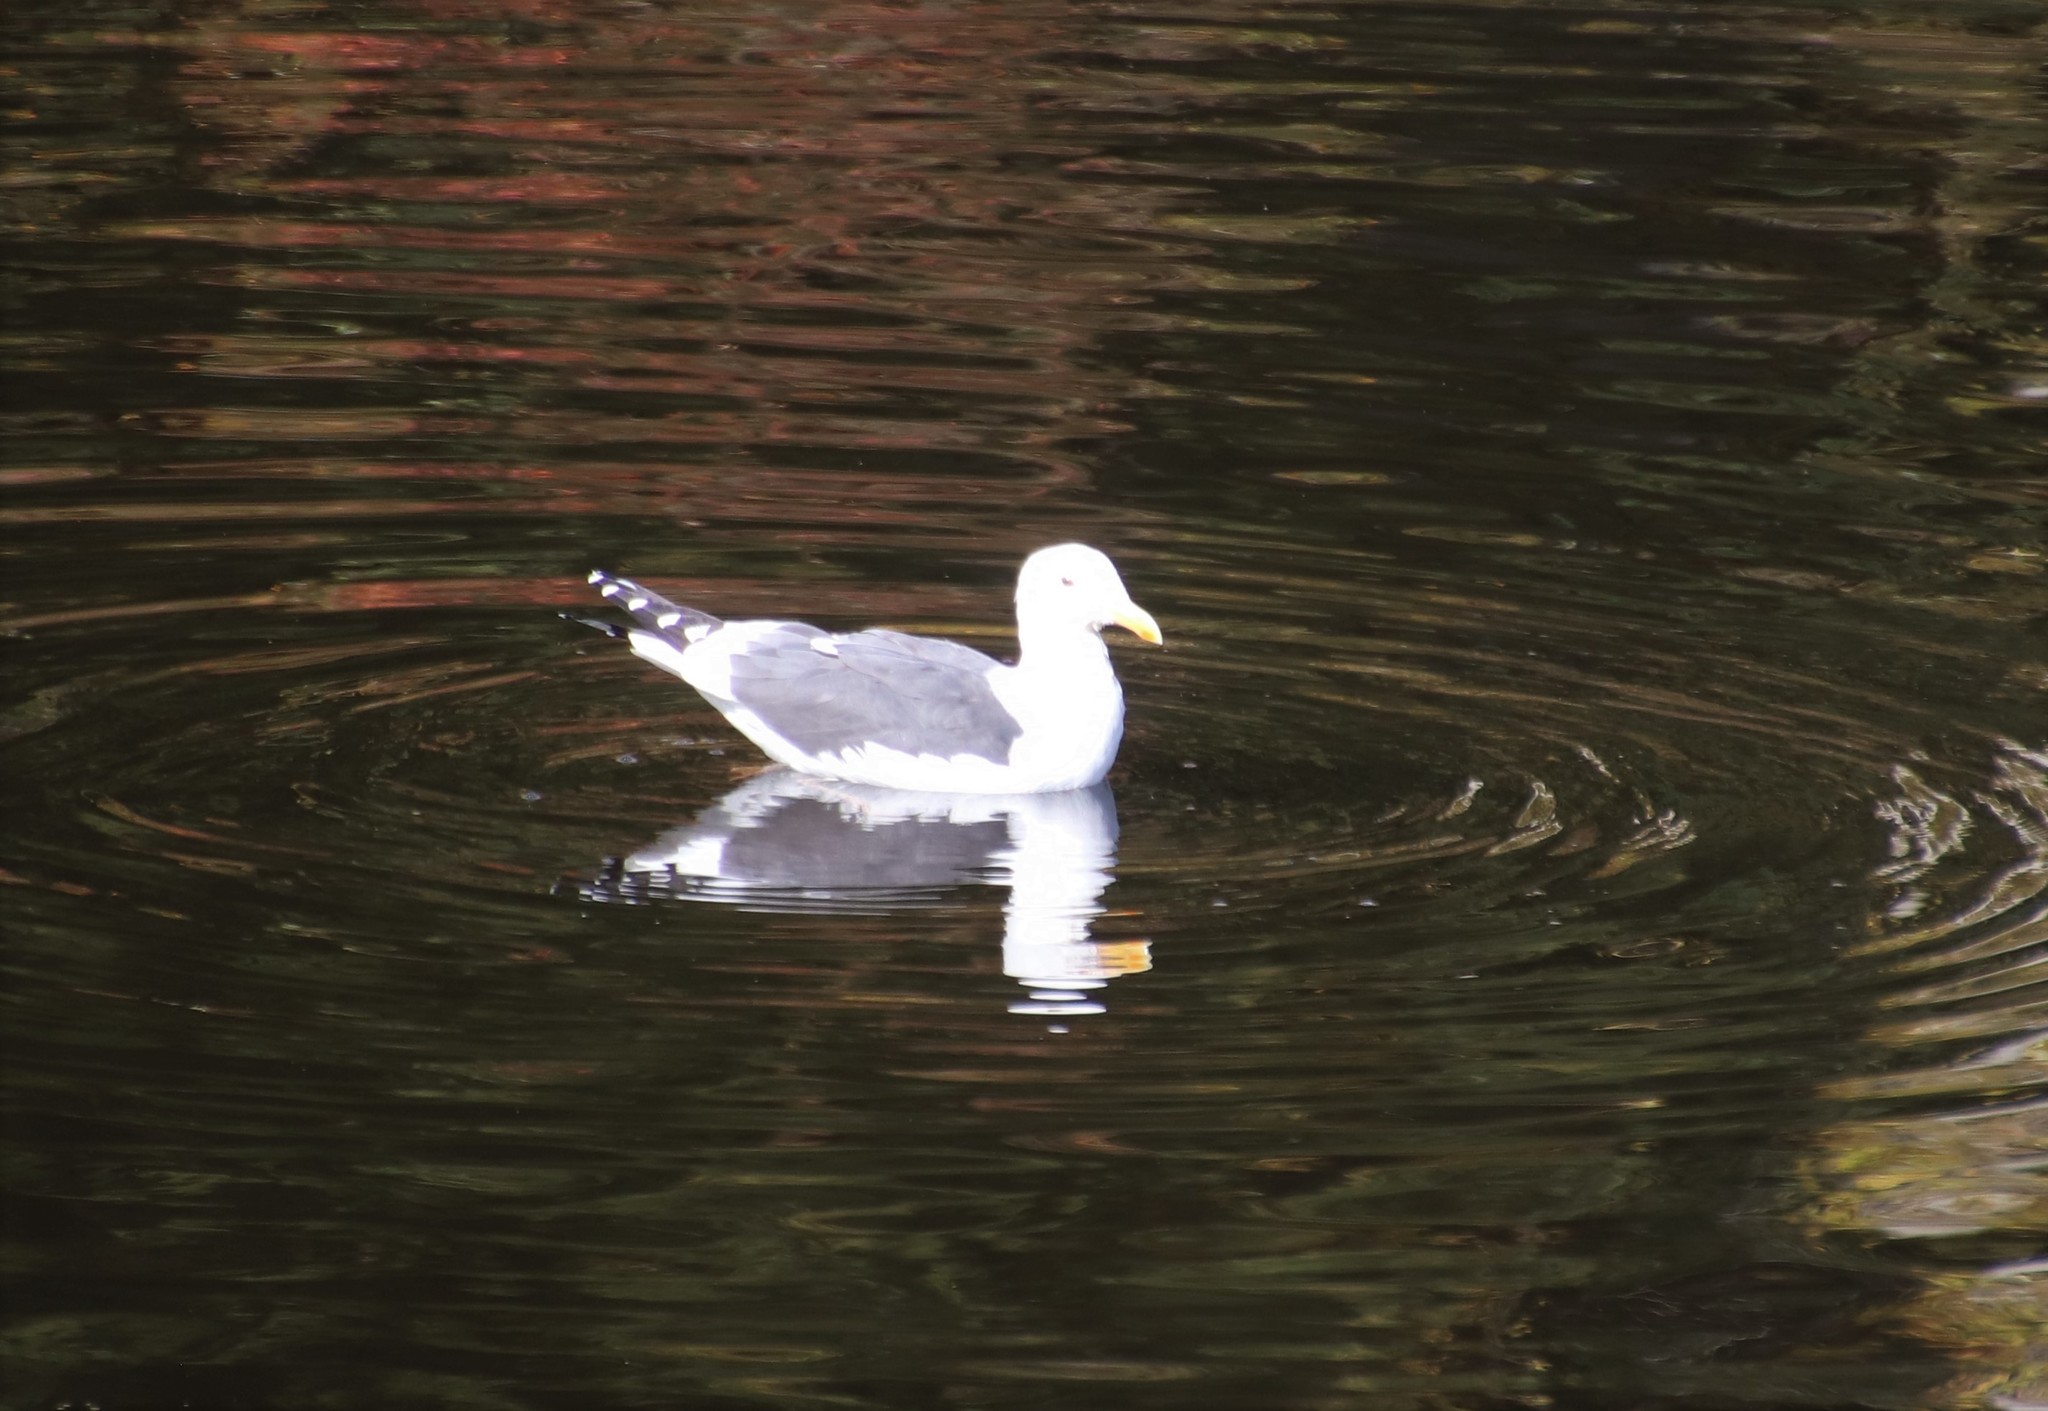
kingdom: Animalia
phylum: Chordata
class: Aves
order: Charadriiformes
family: Laridae
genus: Larus
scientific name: Larus occidentalis
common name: Western gull
